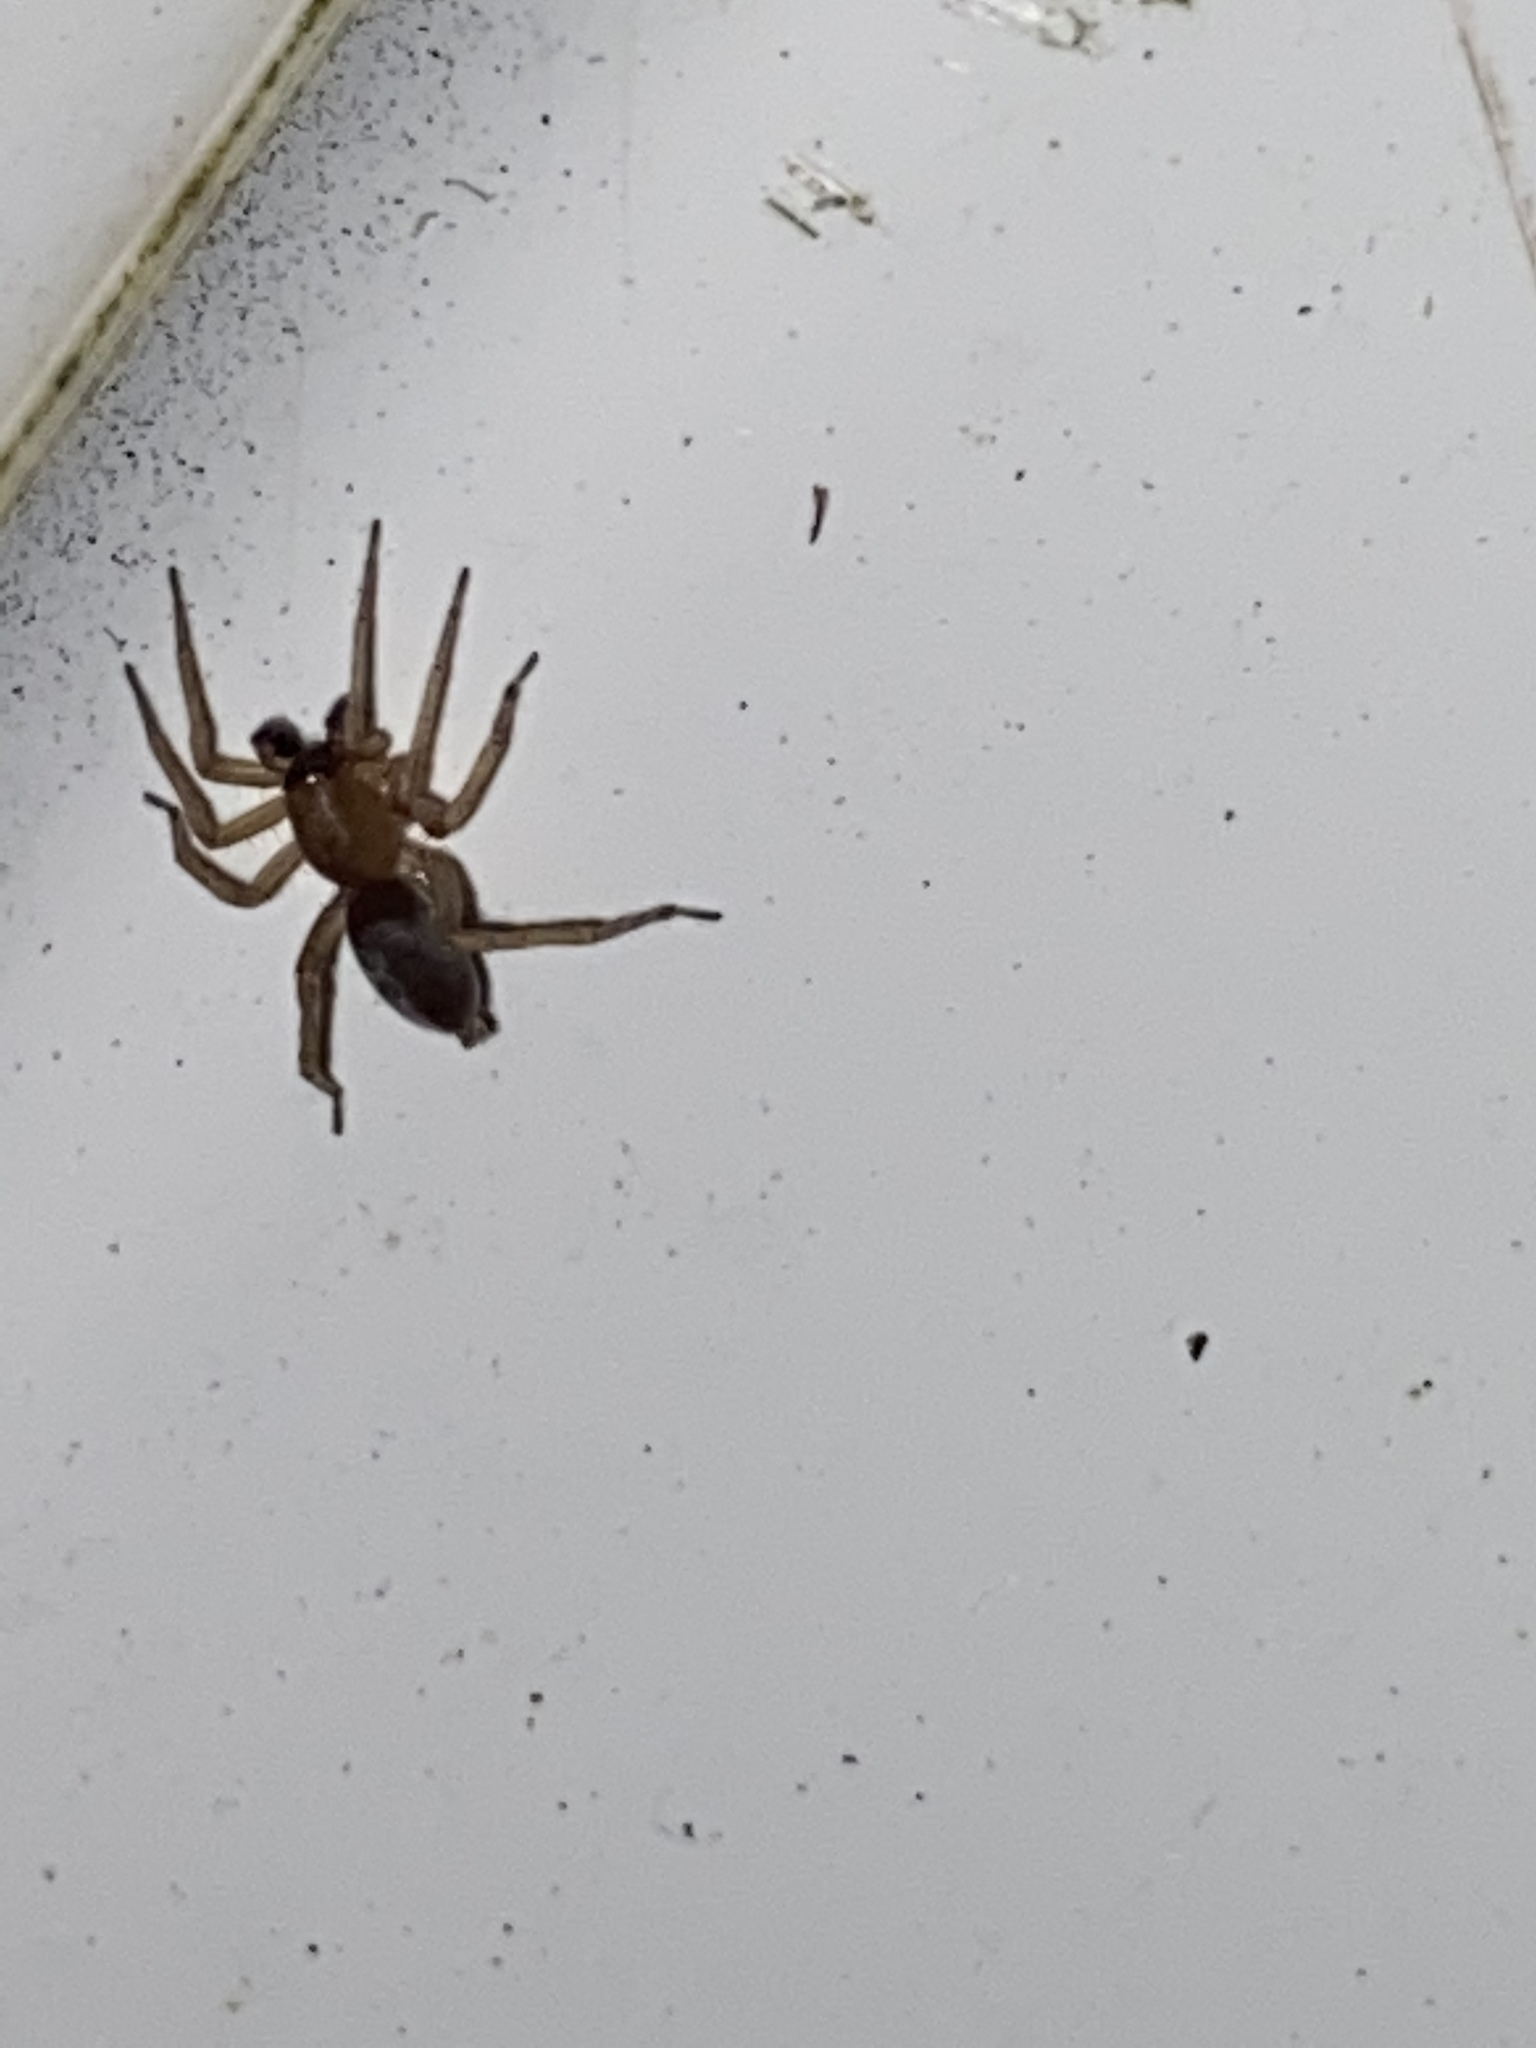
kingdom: Animalia
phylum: Arthropoda
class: Arachnida
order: Araneae
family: Clubionidae
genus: Clubiona
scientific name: Clubiona
